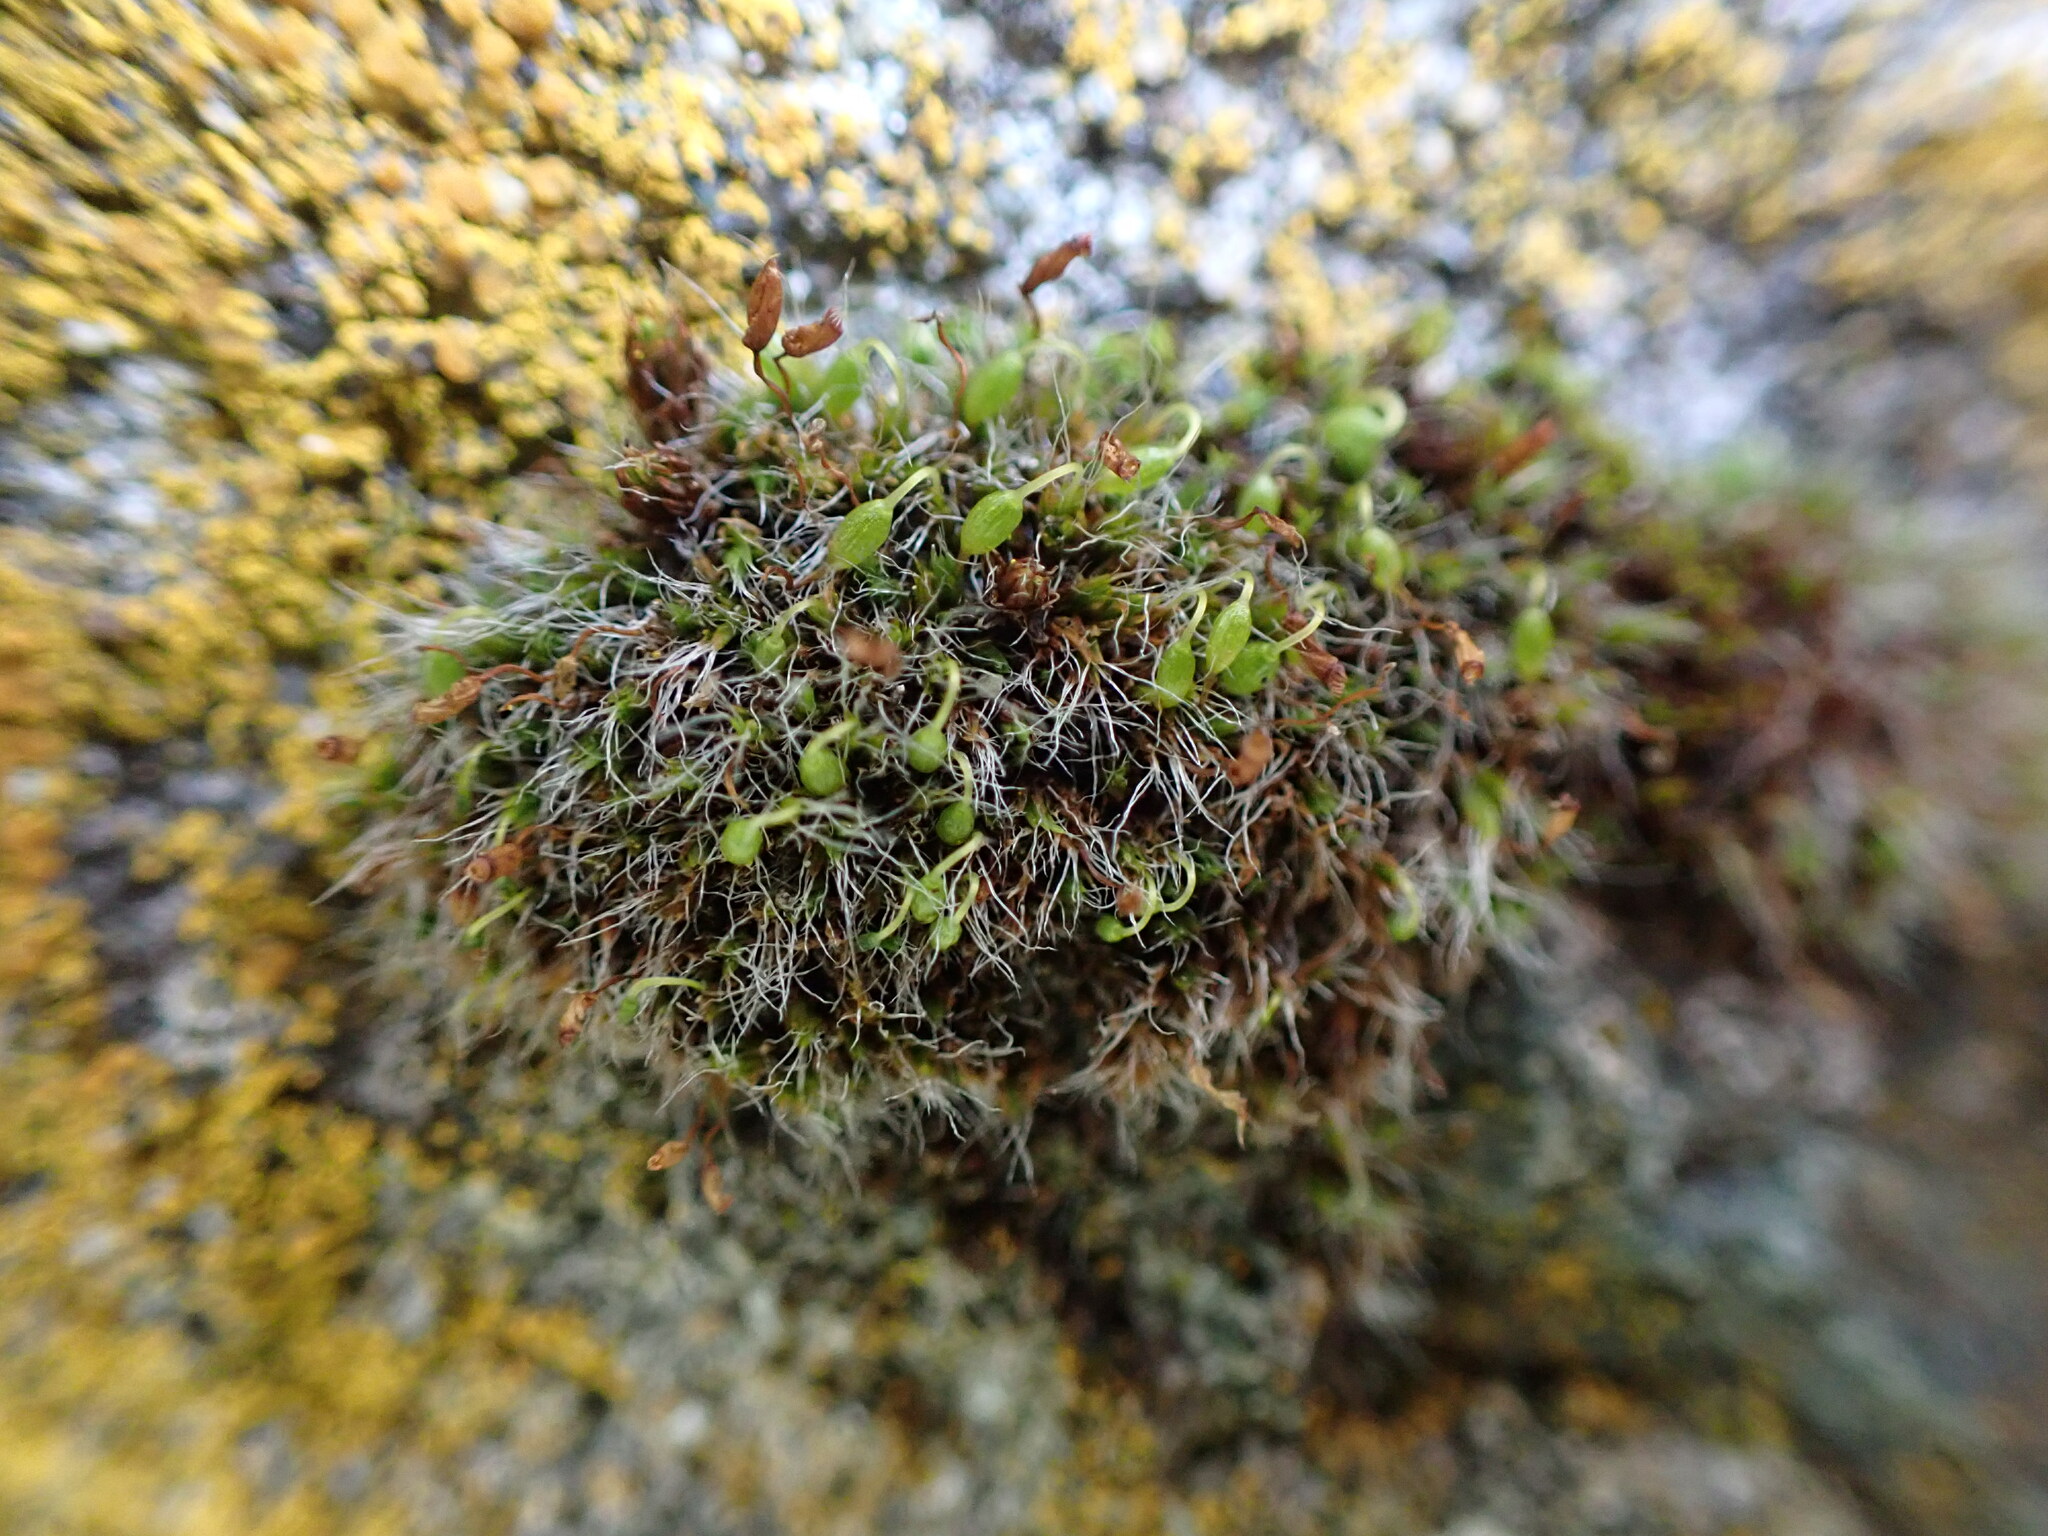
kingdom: Plantae
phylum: Bryophyta
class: Bryopsida
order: Grimmiales
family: Grimmiaceae
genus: Grimmia
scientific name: Grimmia pulvinata
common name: Grey-cushioned grimmia
